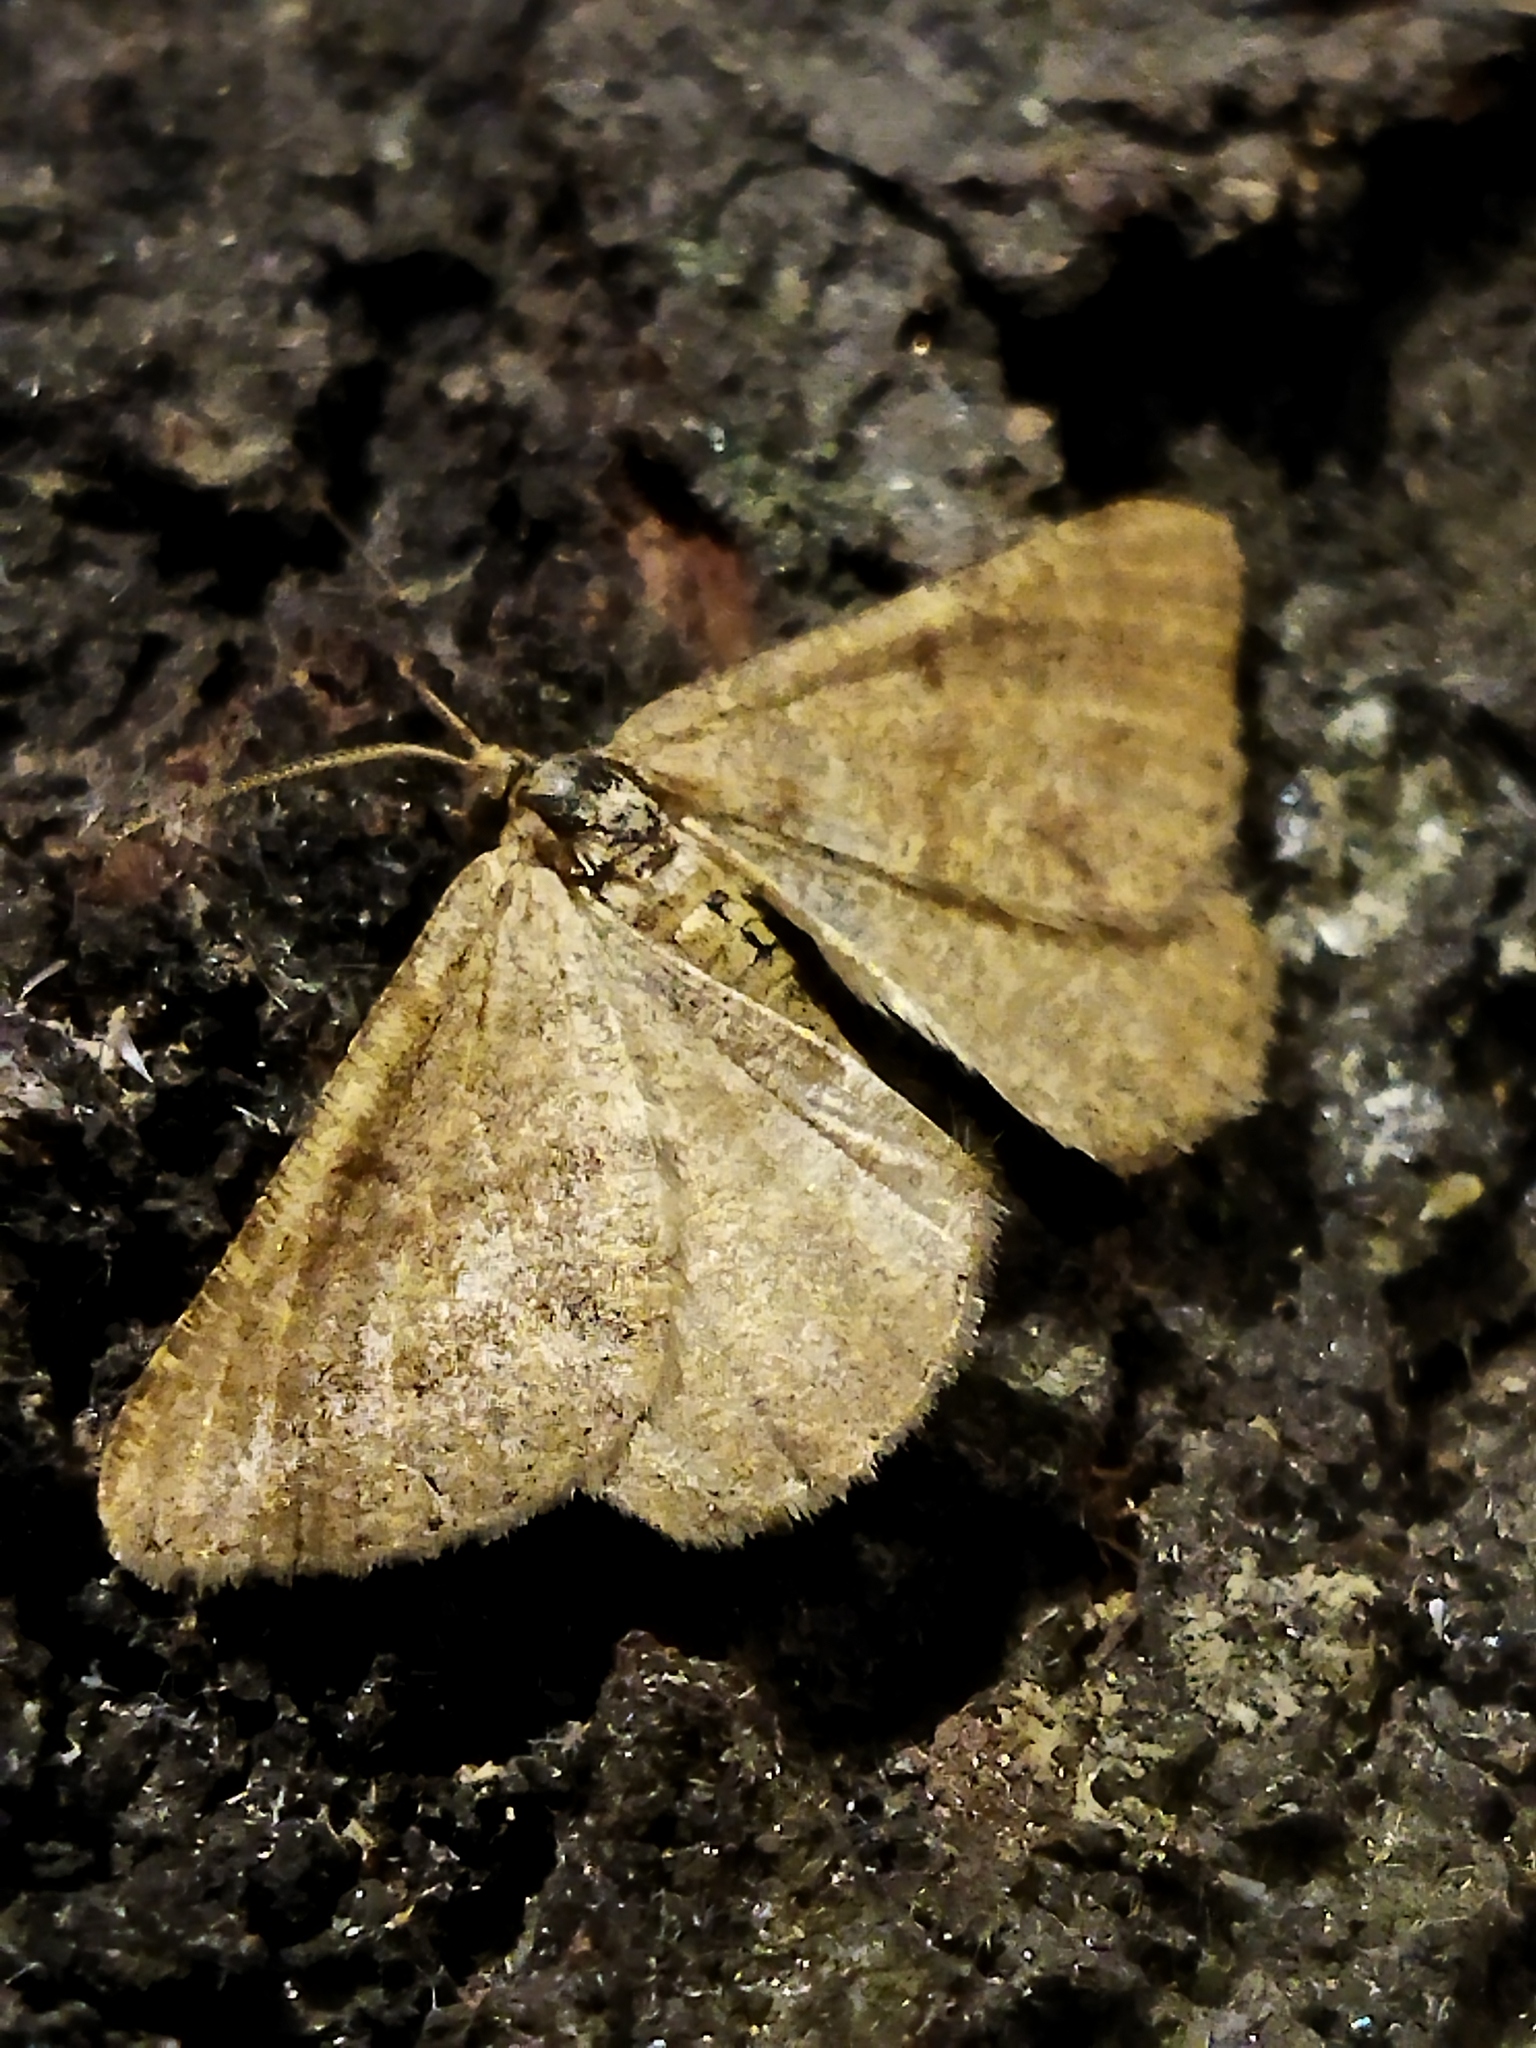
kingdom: Animalia
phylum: Arthropoda
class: Insecta
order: Lepidoptera
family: Geometridae
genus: Tephrina
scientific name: Tephrina murinaria
